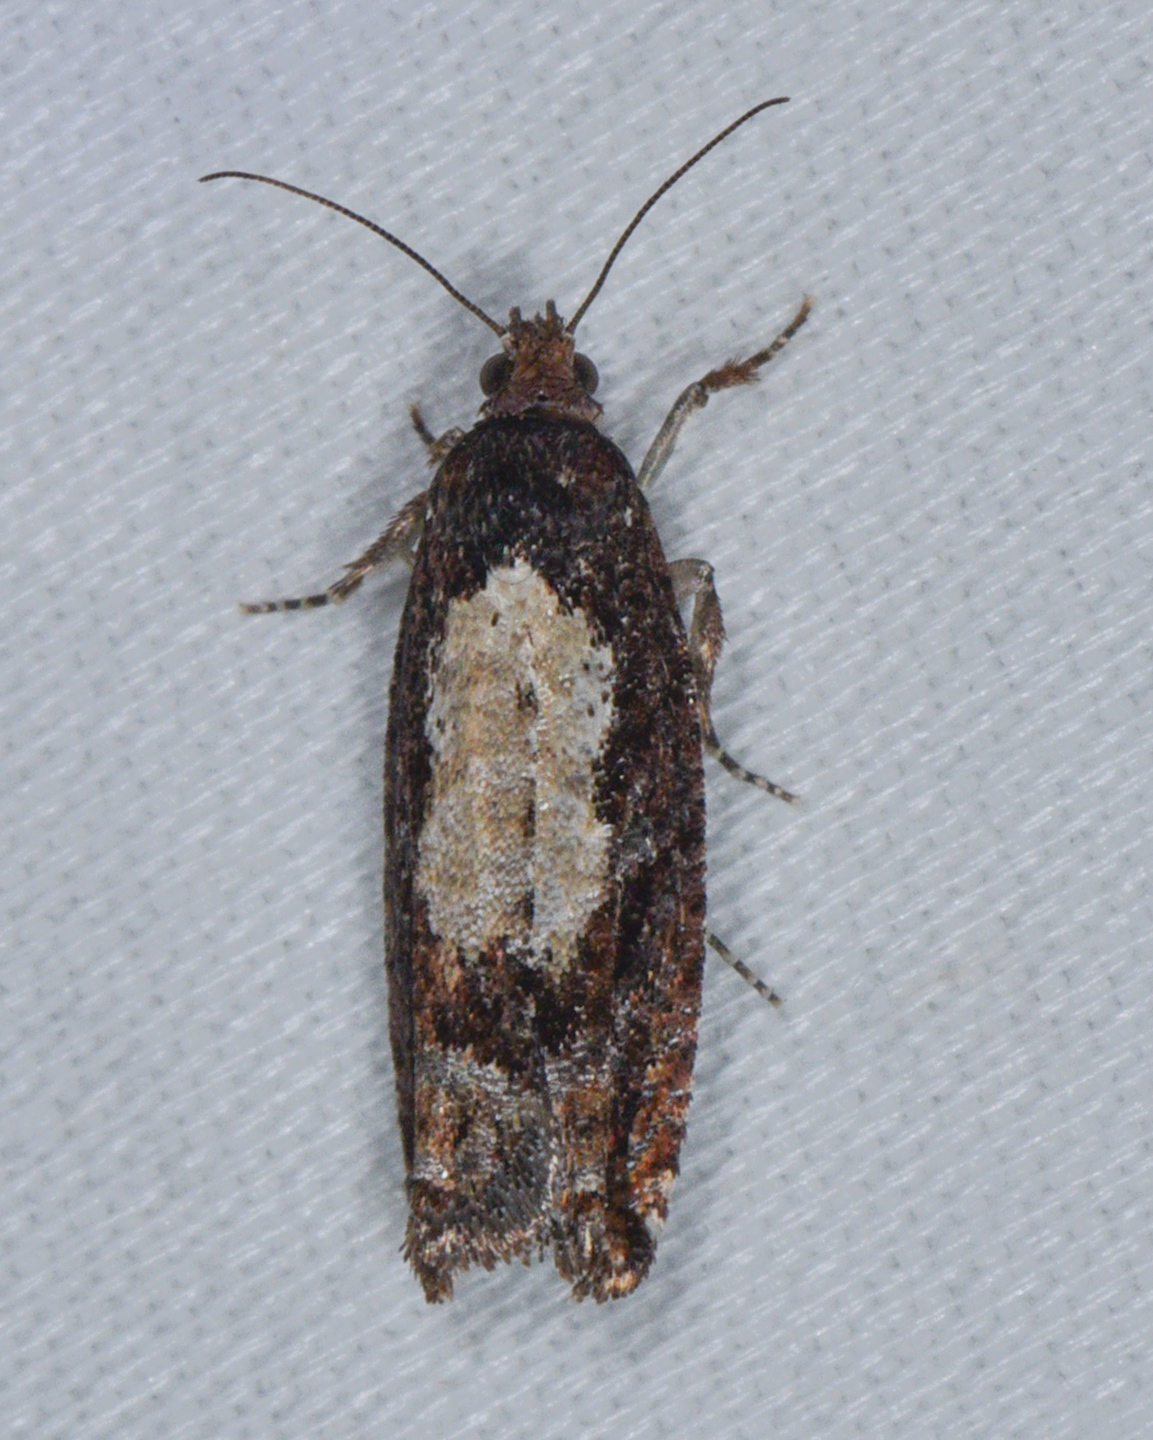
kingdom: Animalia
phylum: Arthropoda
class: Insecta
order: Lepidoptera
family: Tortricidae
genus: Epinotia
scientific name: Epinotia emarginana
